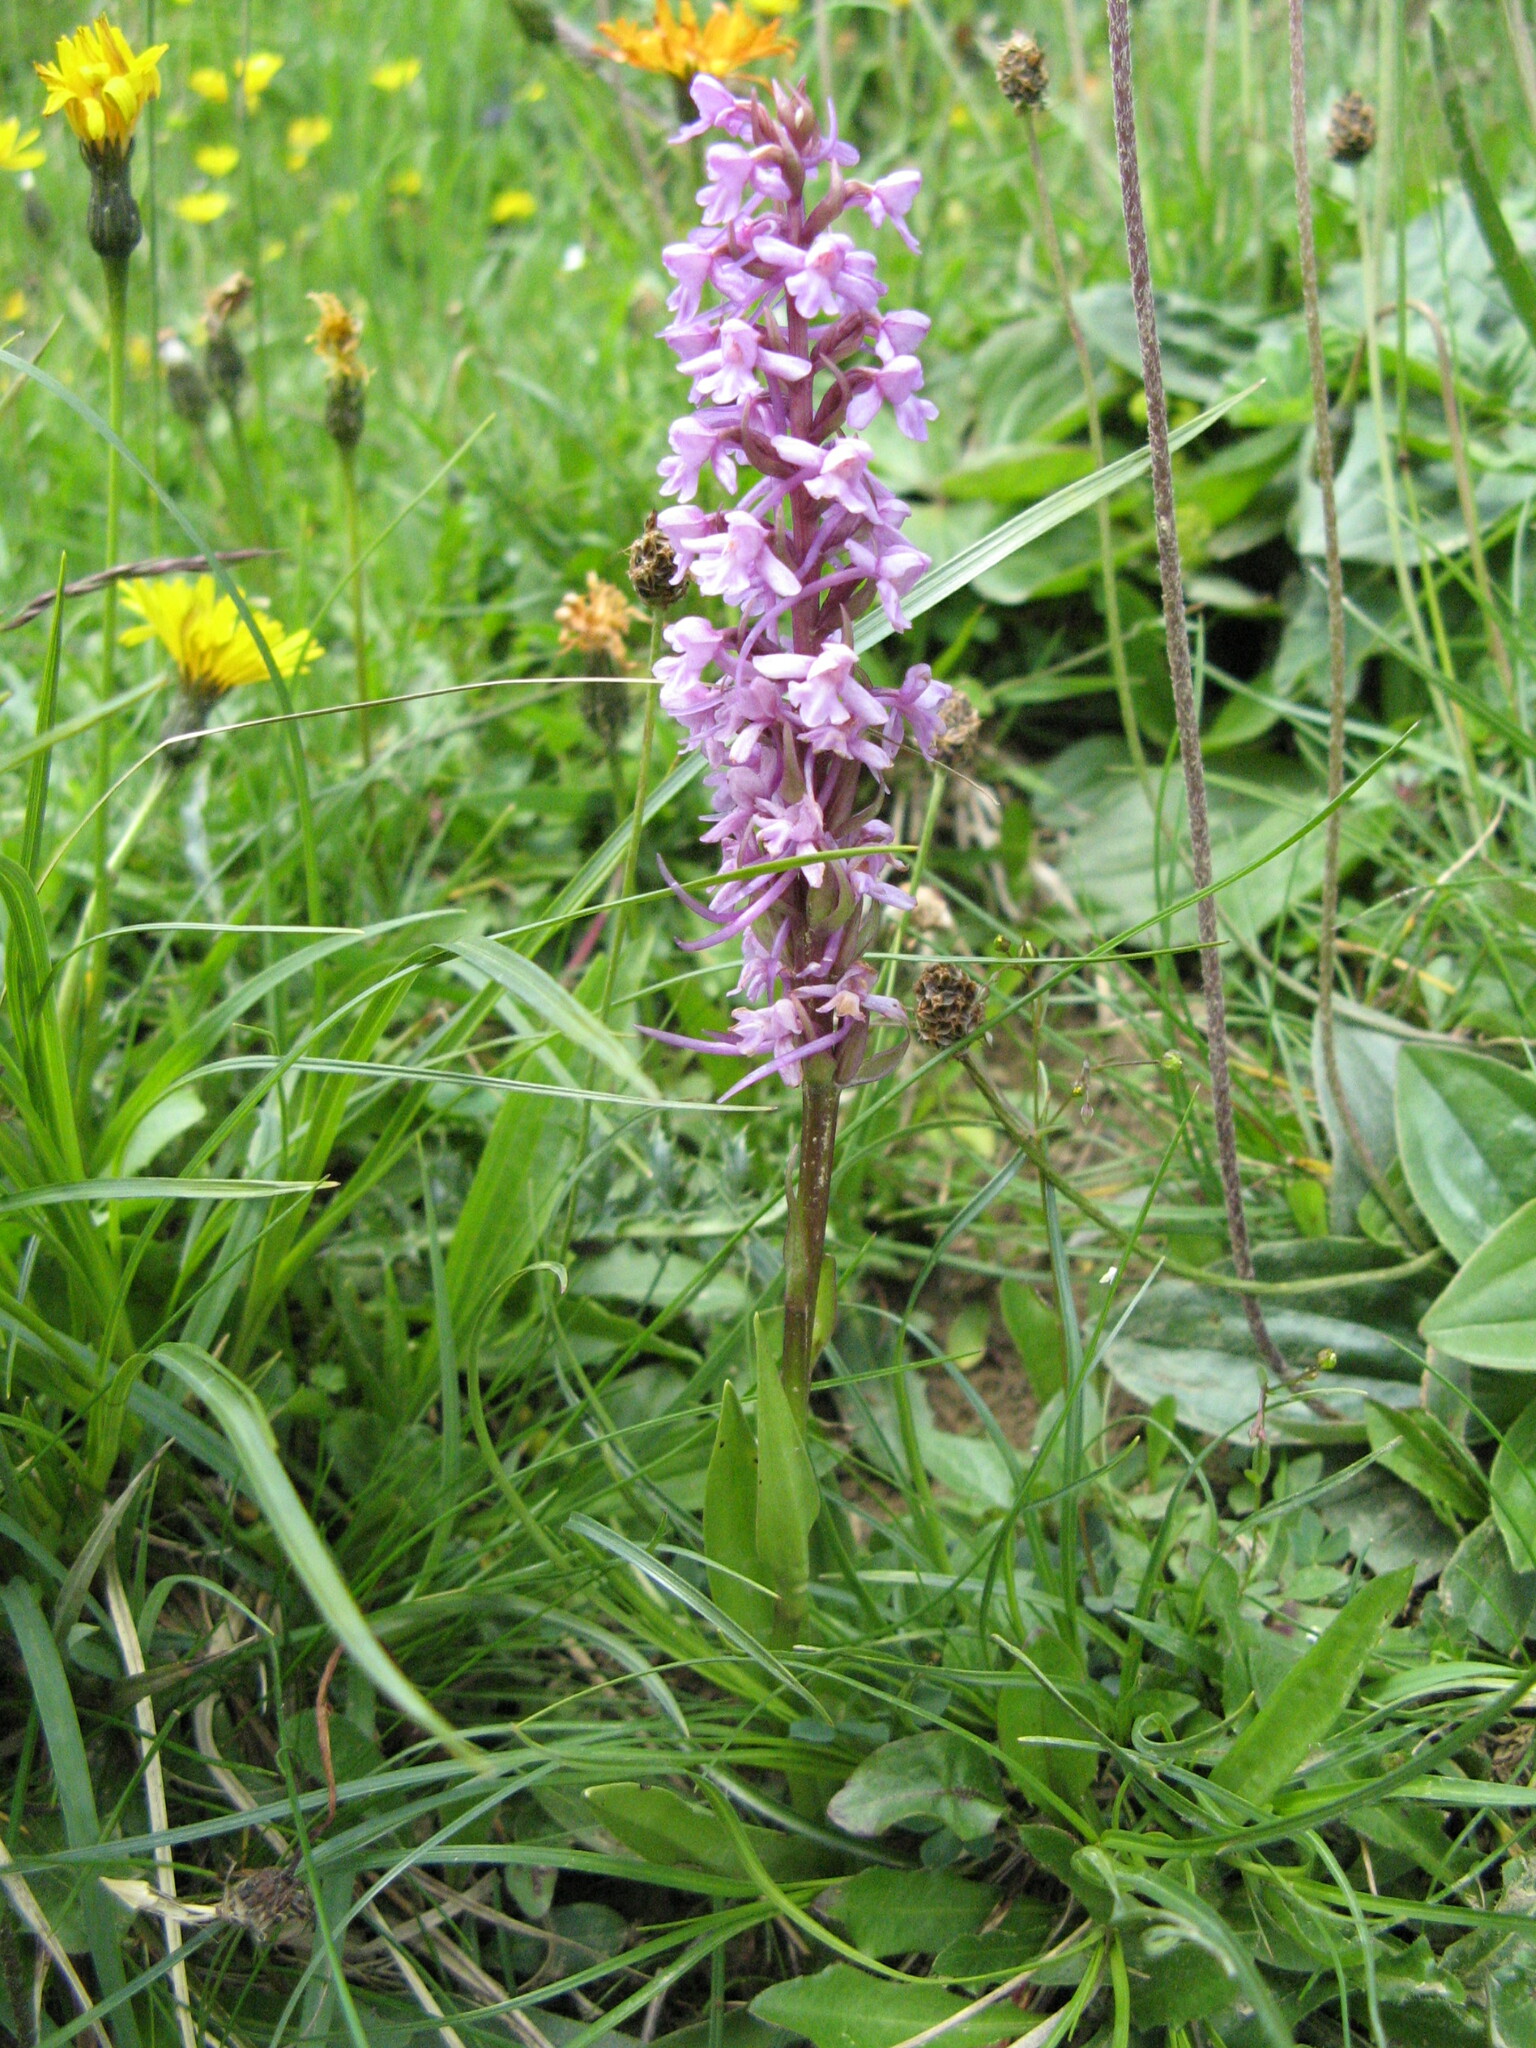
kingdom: Plantae
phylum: Tracheophyta
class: Liliopsida
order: Asparagales
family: Orchidaceae
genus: Gymnadenia
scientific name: Gymnadenia conopsea
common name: Fragrant orchid
